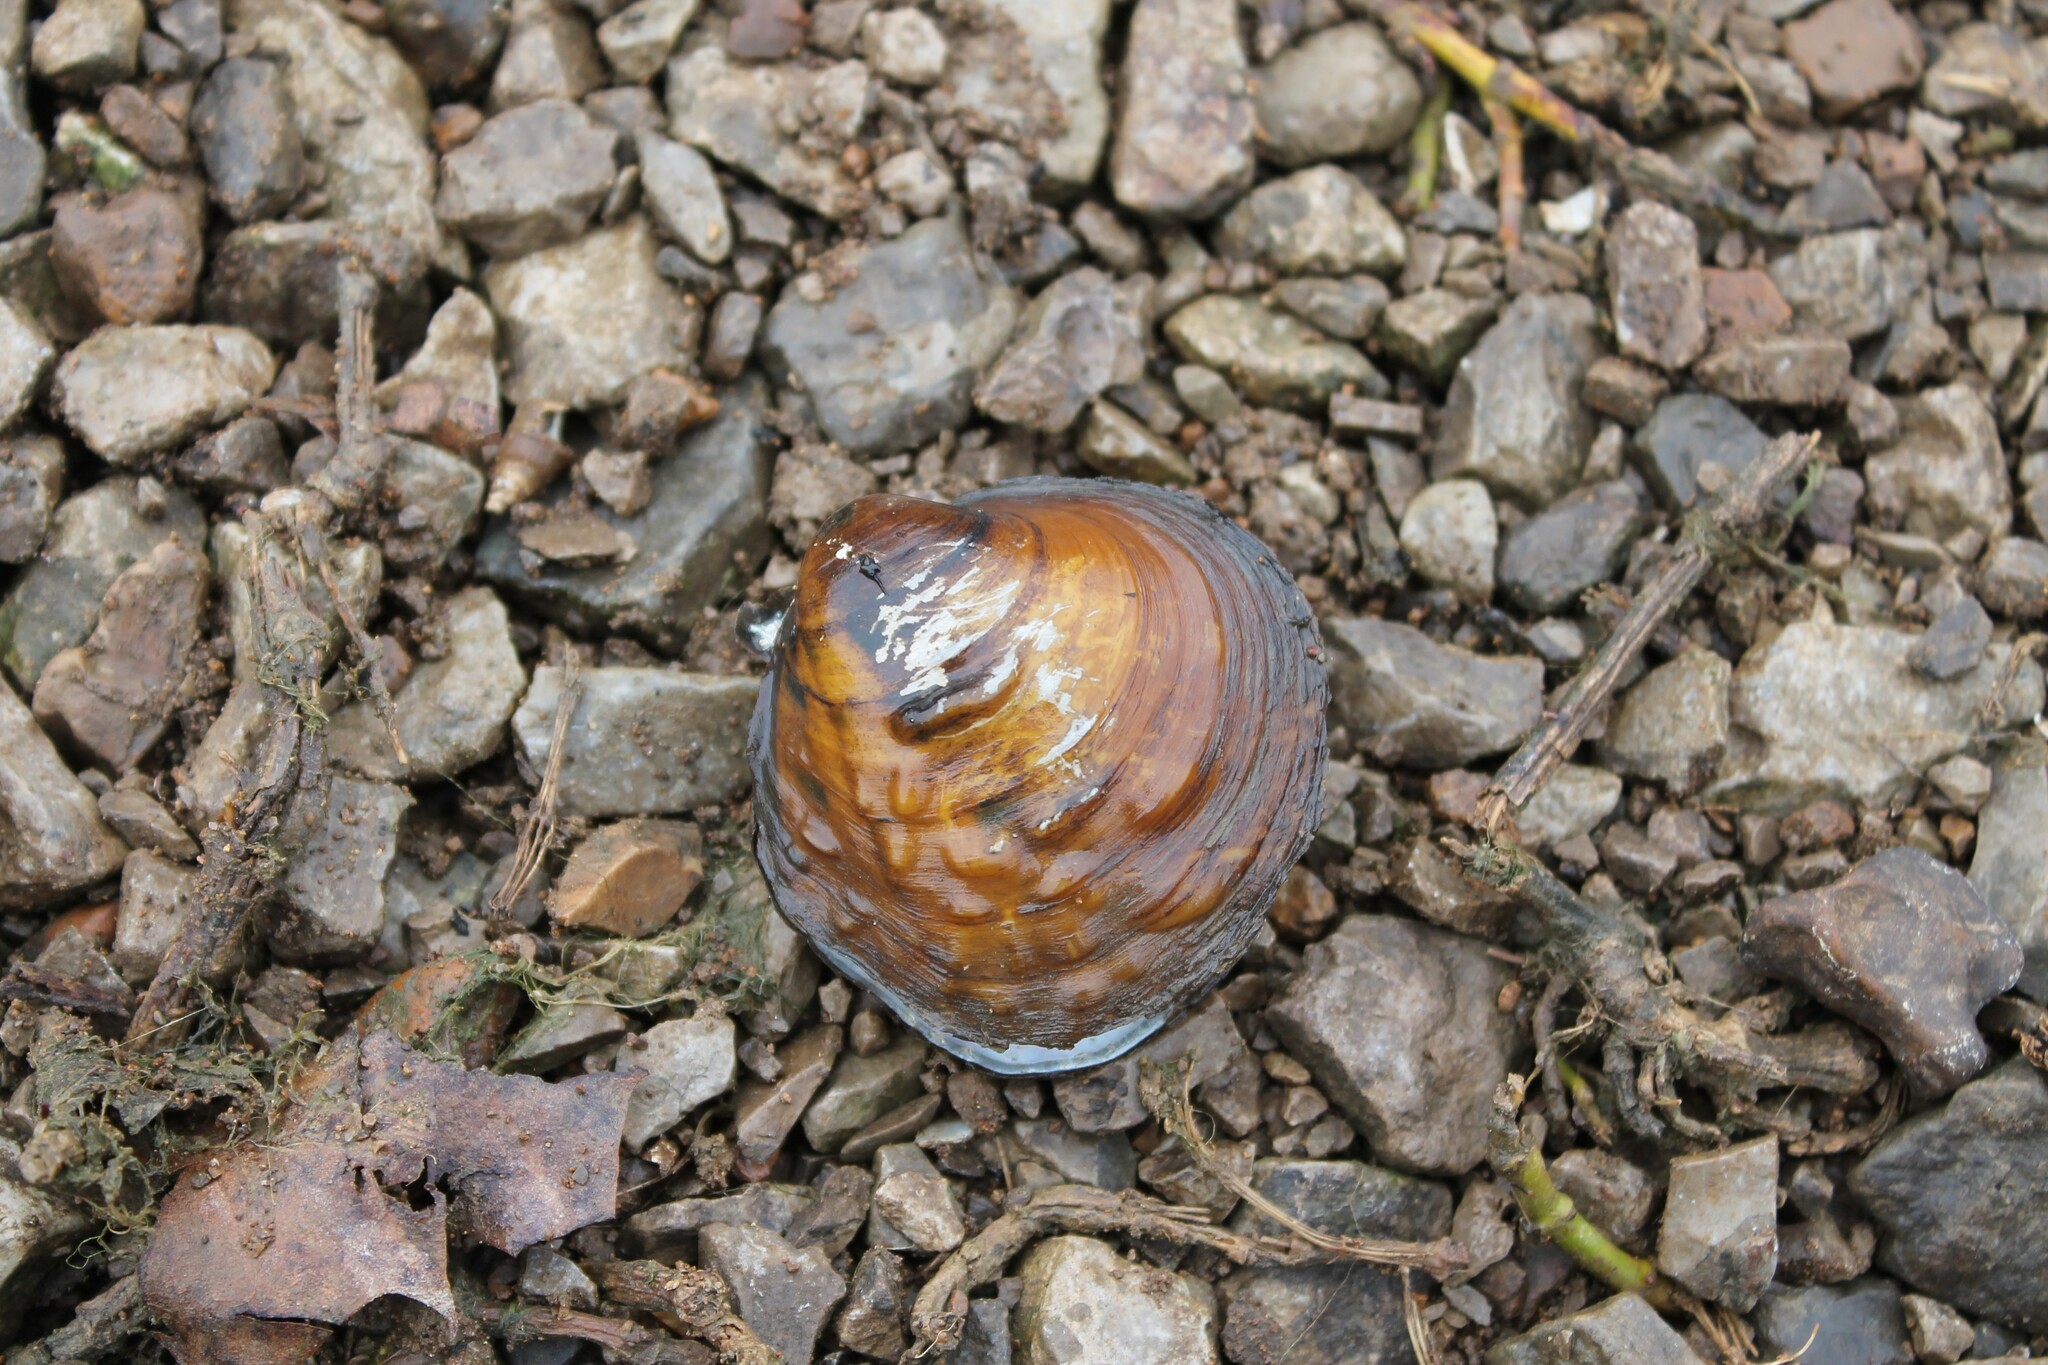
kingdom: Animalia
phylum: Mollusca
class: Bivalvia
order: Unionida
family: Unionidae
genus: Cyclonaias
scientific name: Cyclonaias pustulosa
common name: Pimpleback
